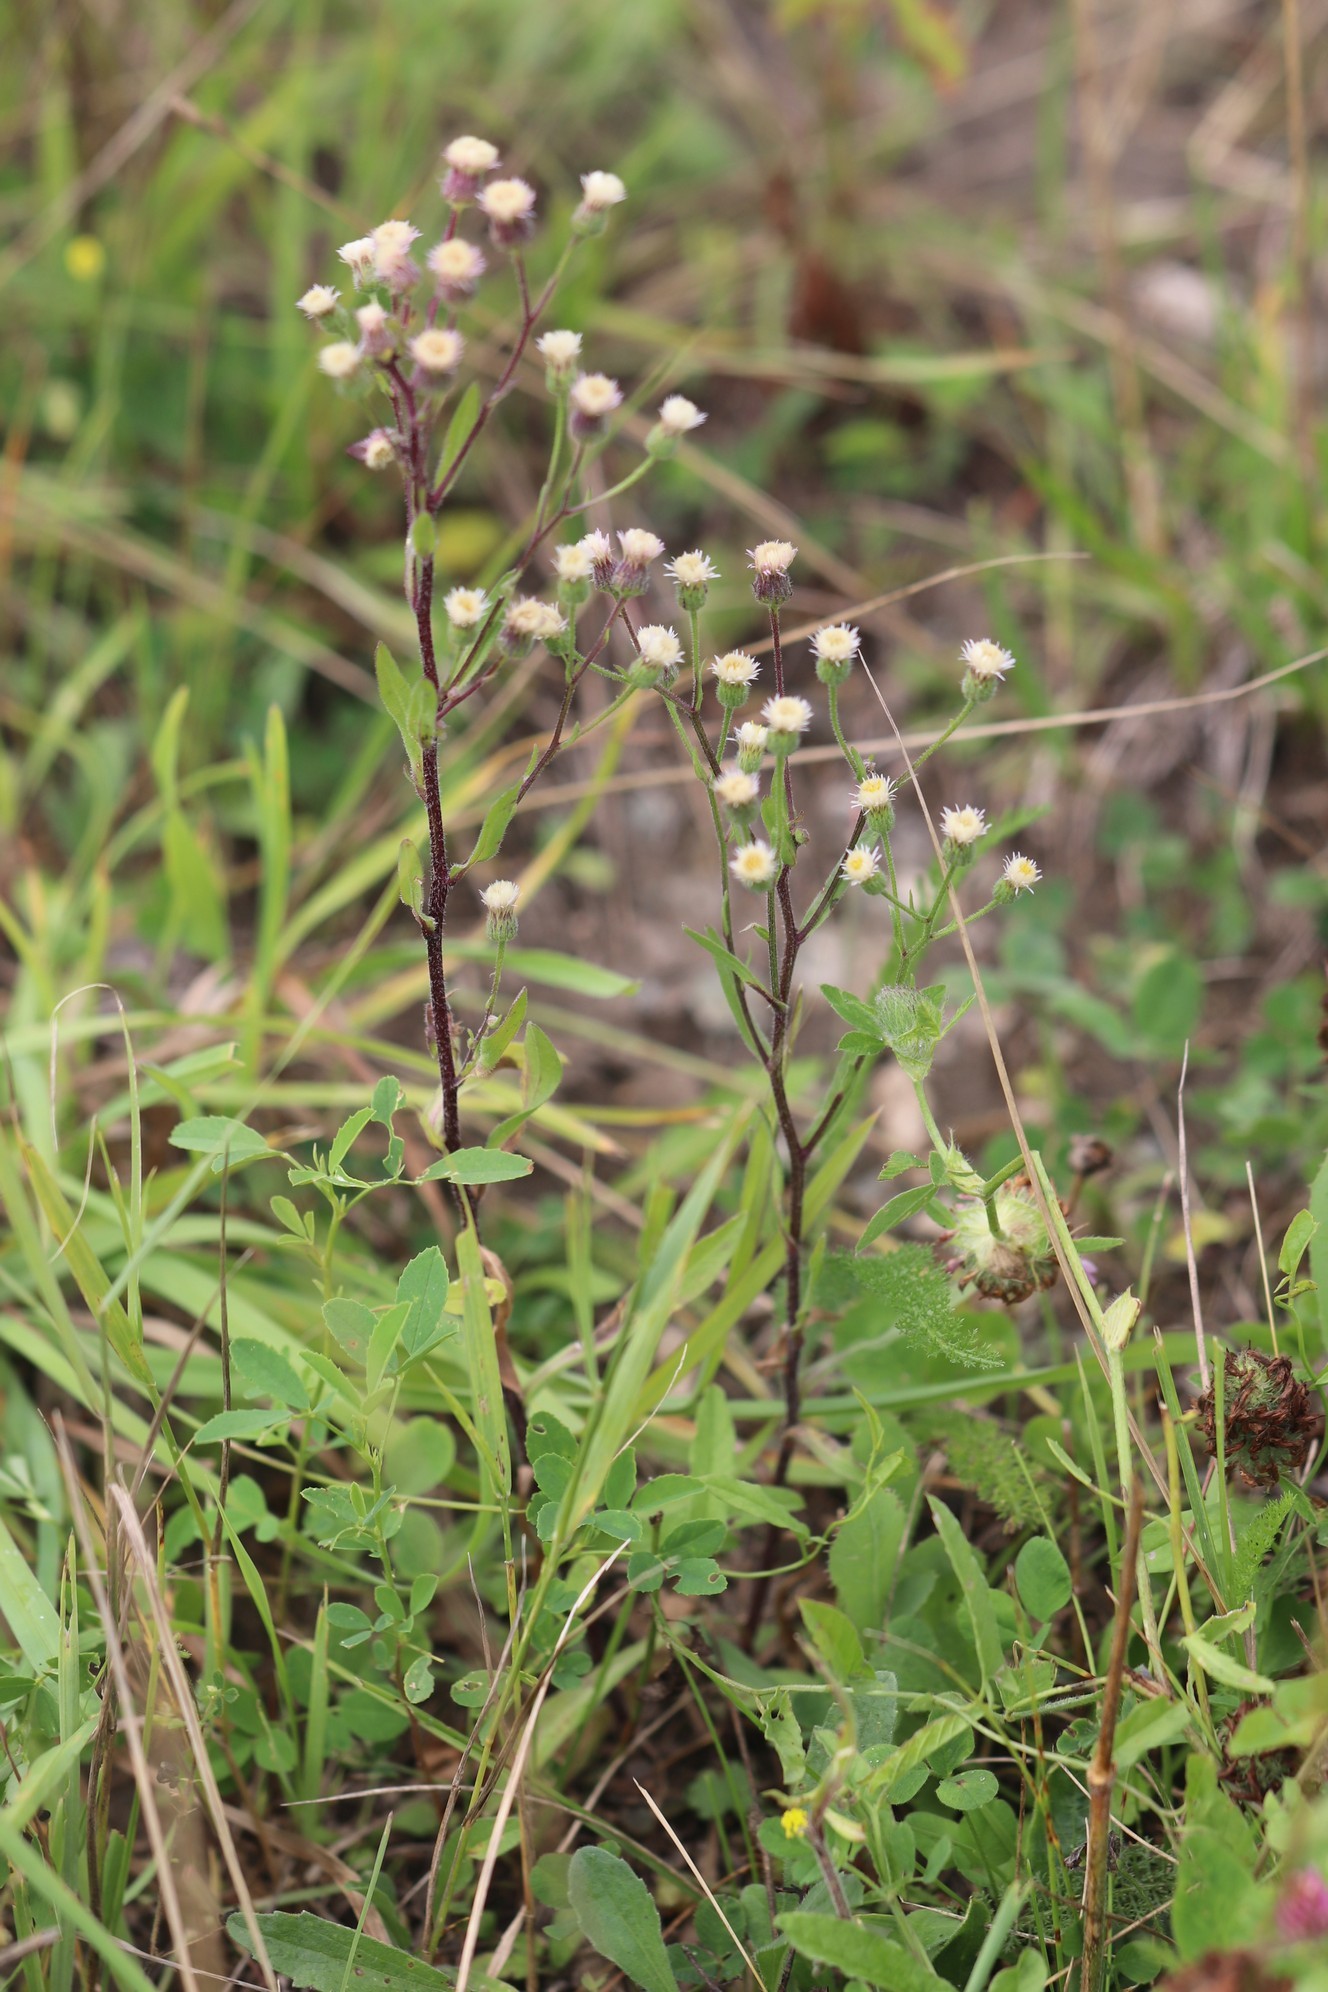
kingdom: Plantae
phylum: Tracheophyta
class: Magnoliopsida
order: Asterales
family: Asteraceae
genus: Erigeron
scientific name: Erigeron acris
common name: Blue fleabane
